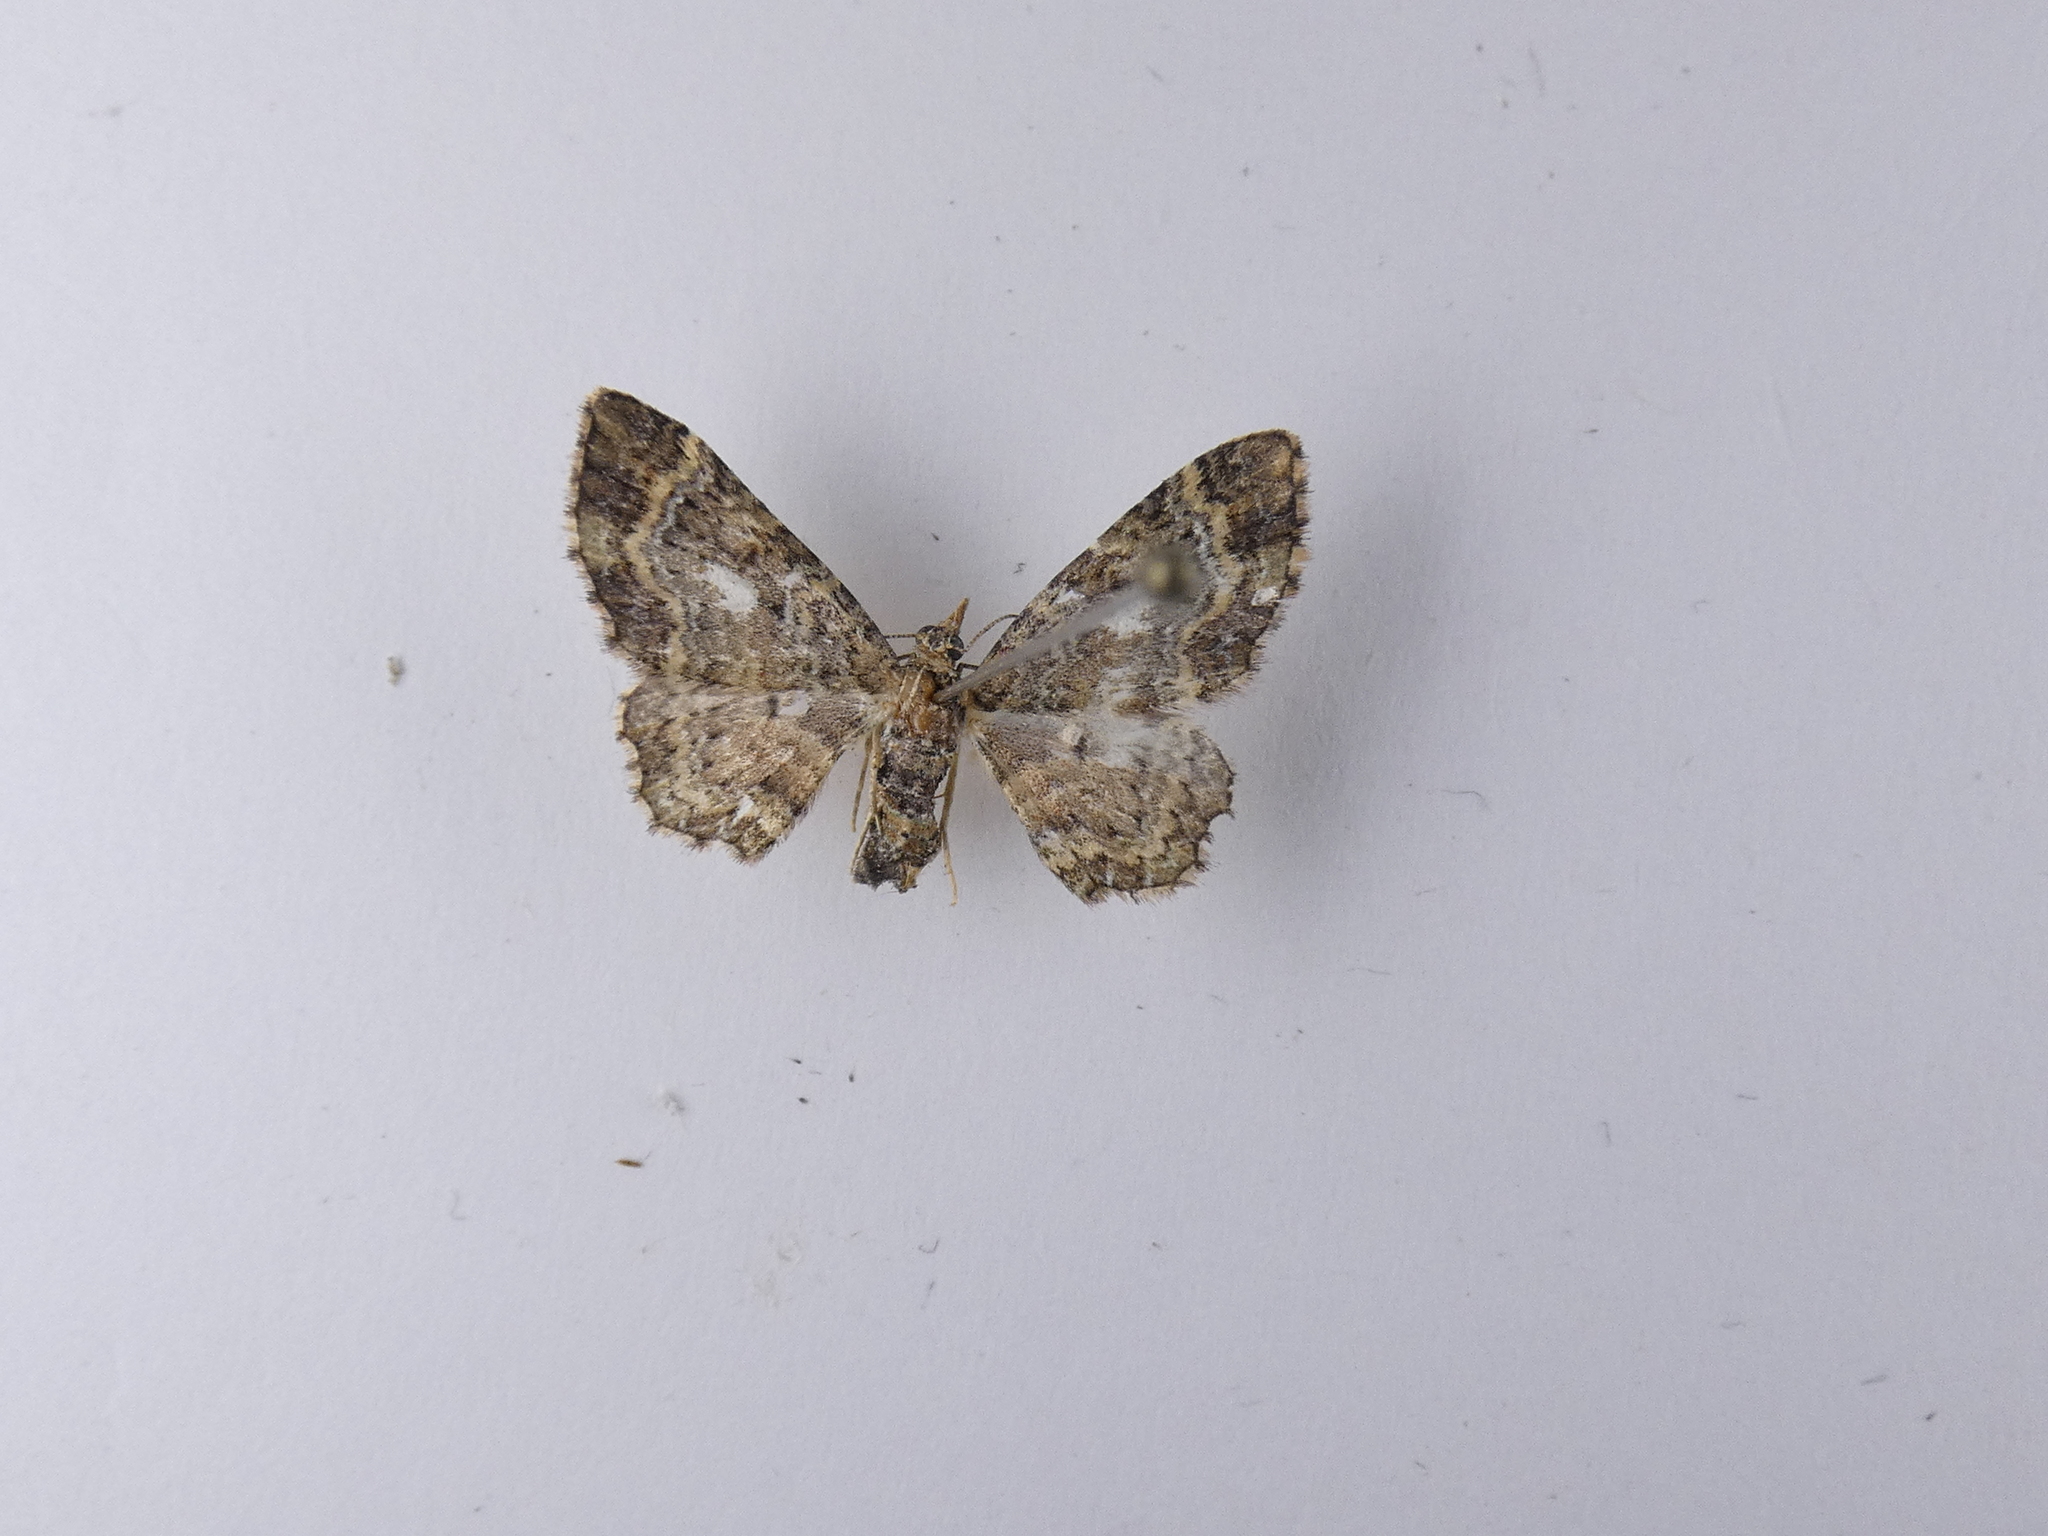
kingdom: Animalia
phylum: Arthropoda
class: Insecta
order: Lepidoptera
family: Geometridae
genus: Pasiphila
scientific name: Pasiphila lunata
